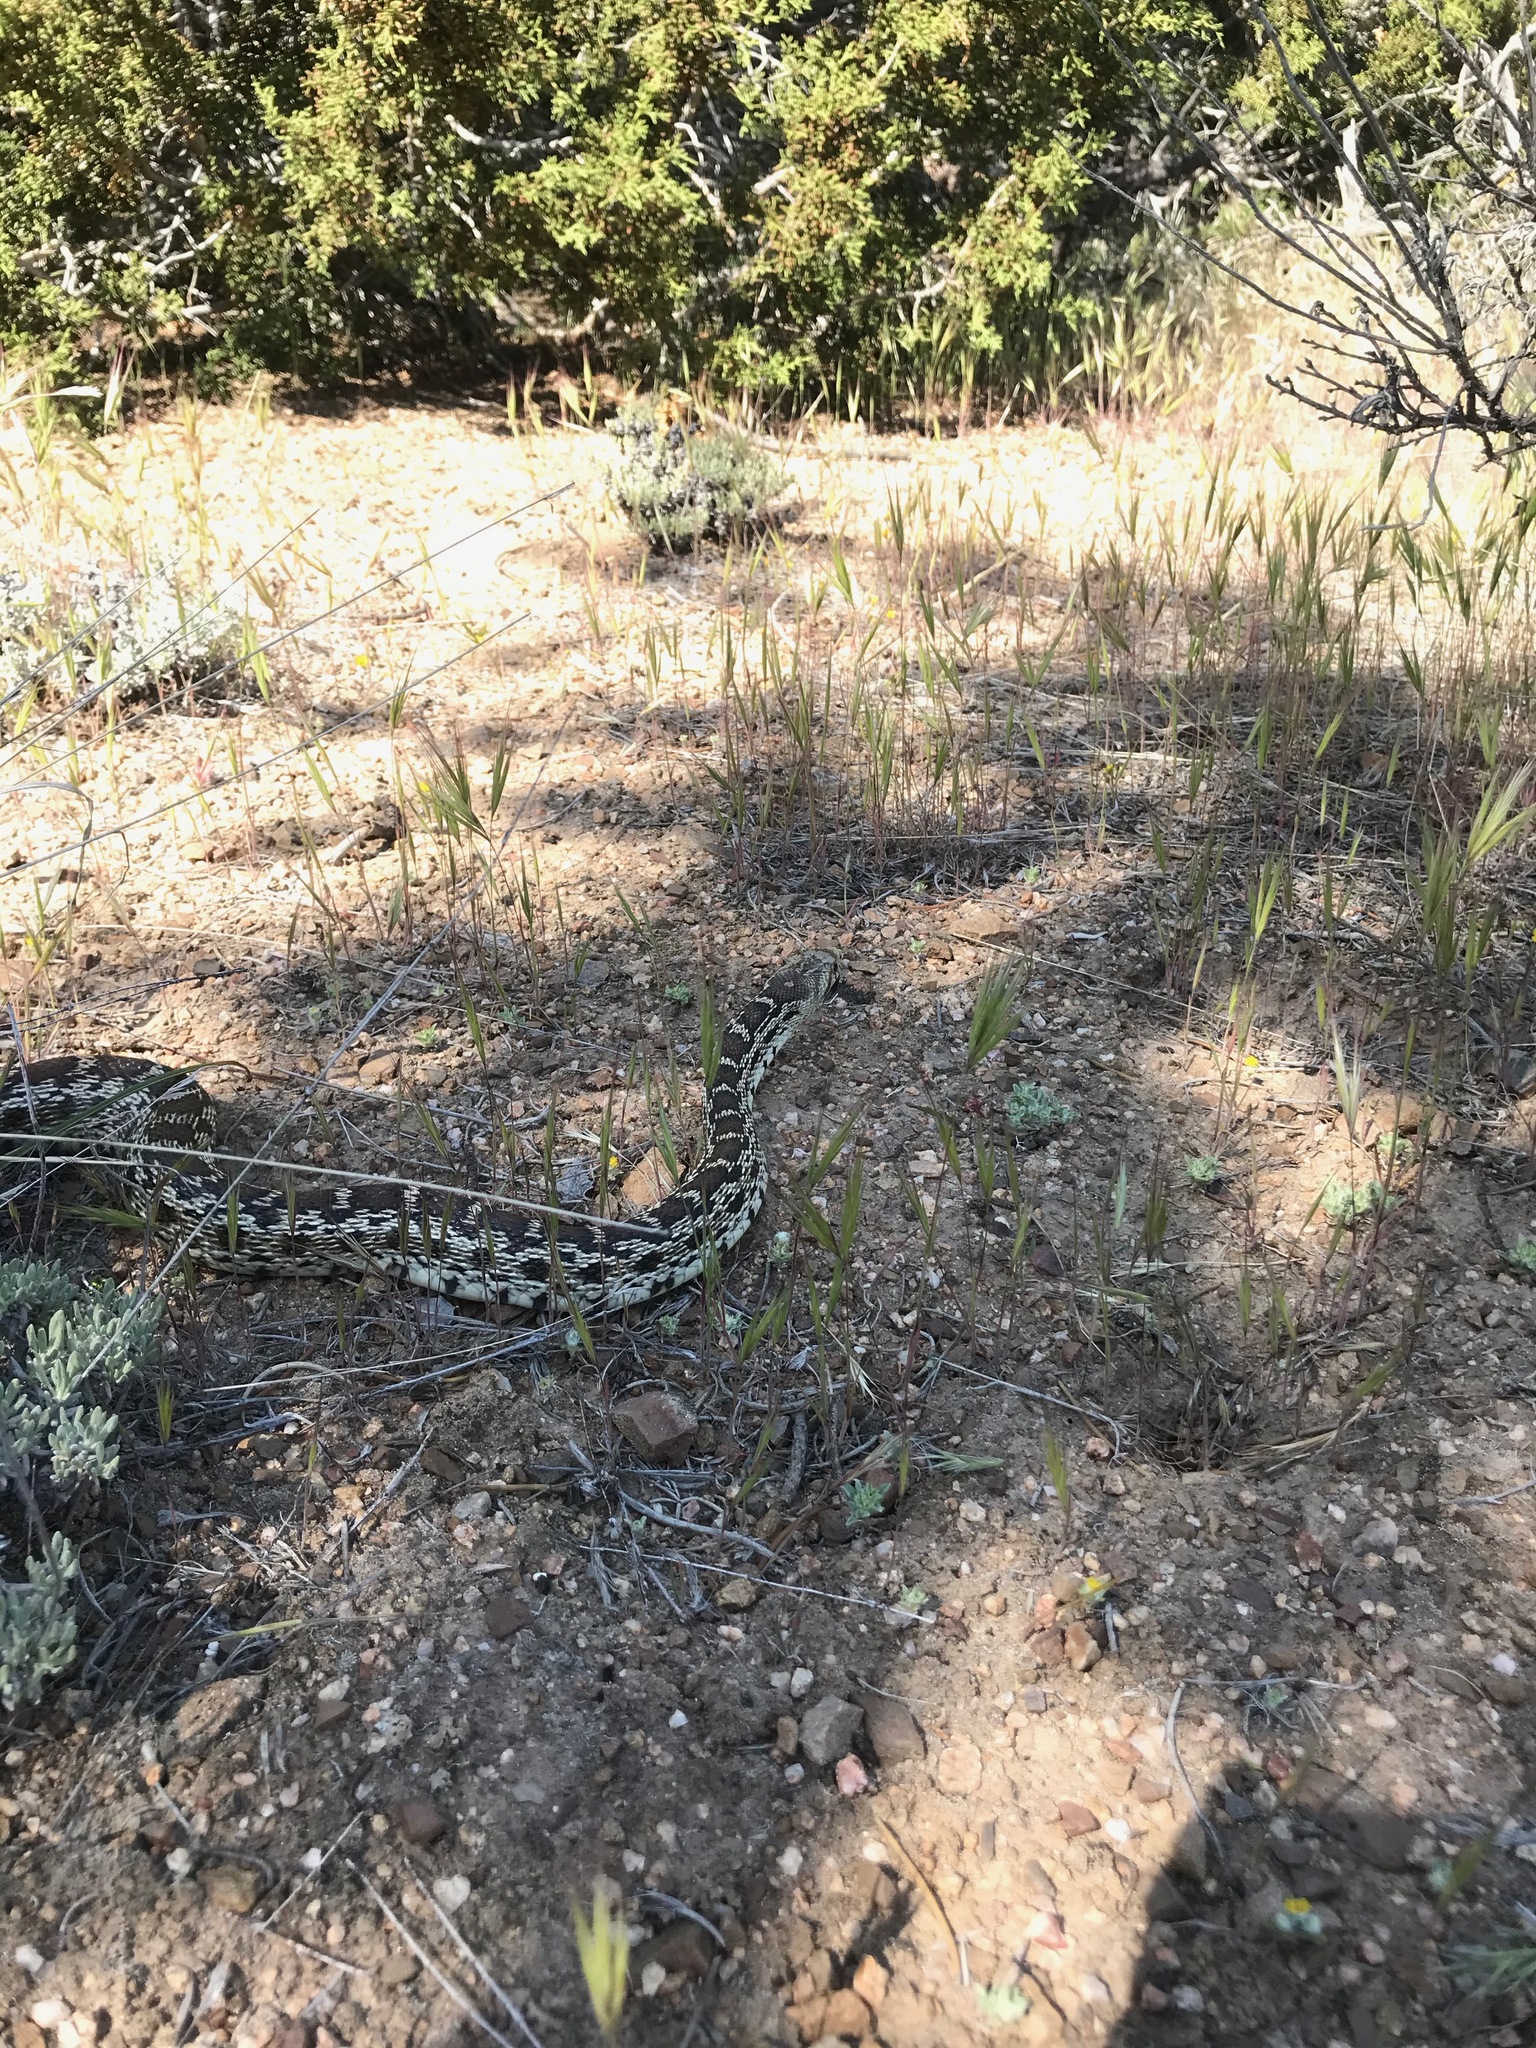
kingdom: Animalia
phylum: Chordata
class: Squamata
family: Colubridae
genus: Pituophis
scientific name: Pituophis catenifer
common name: Gopher snake
